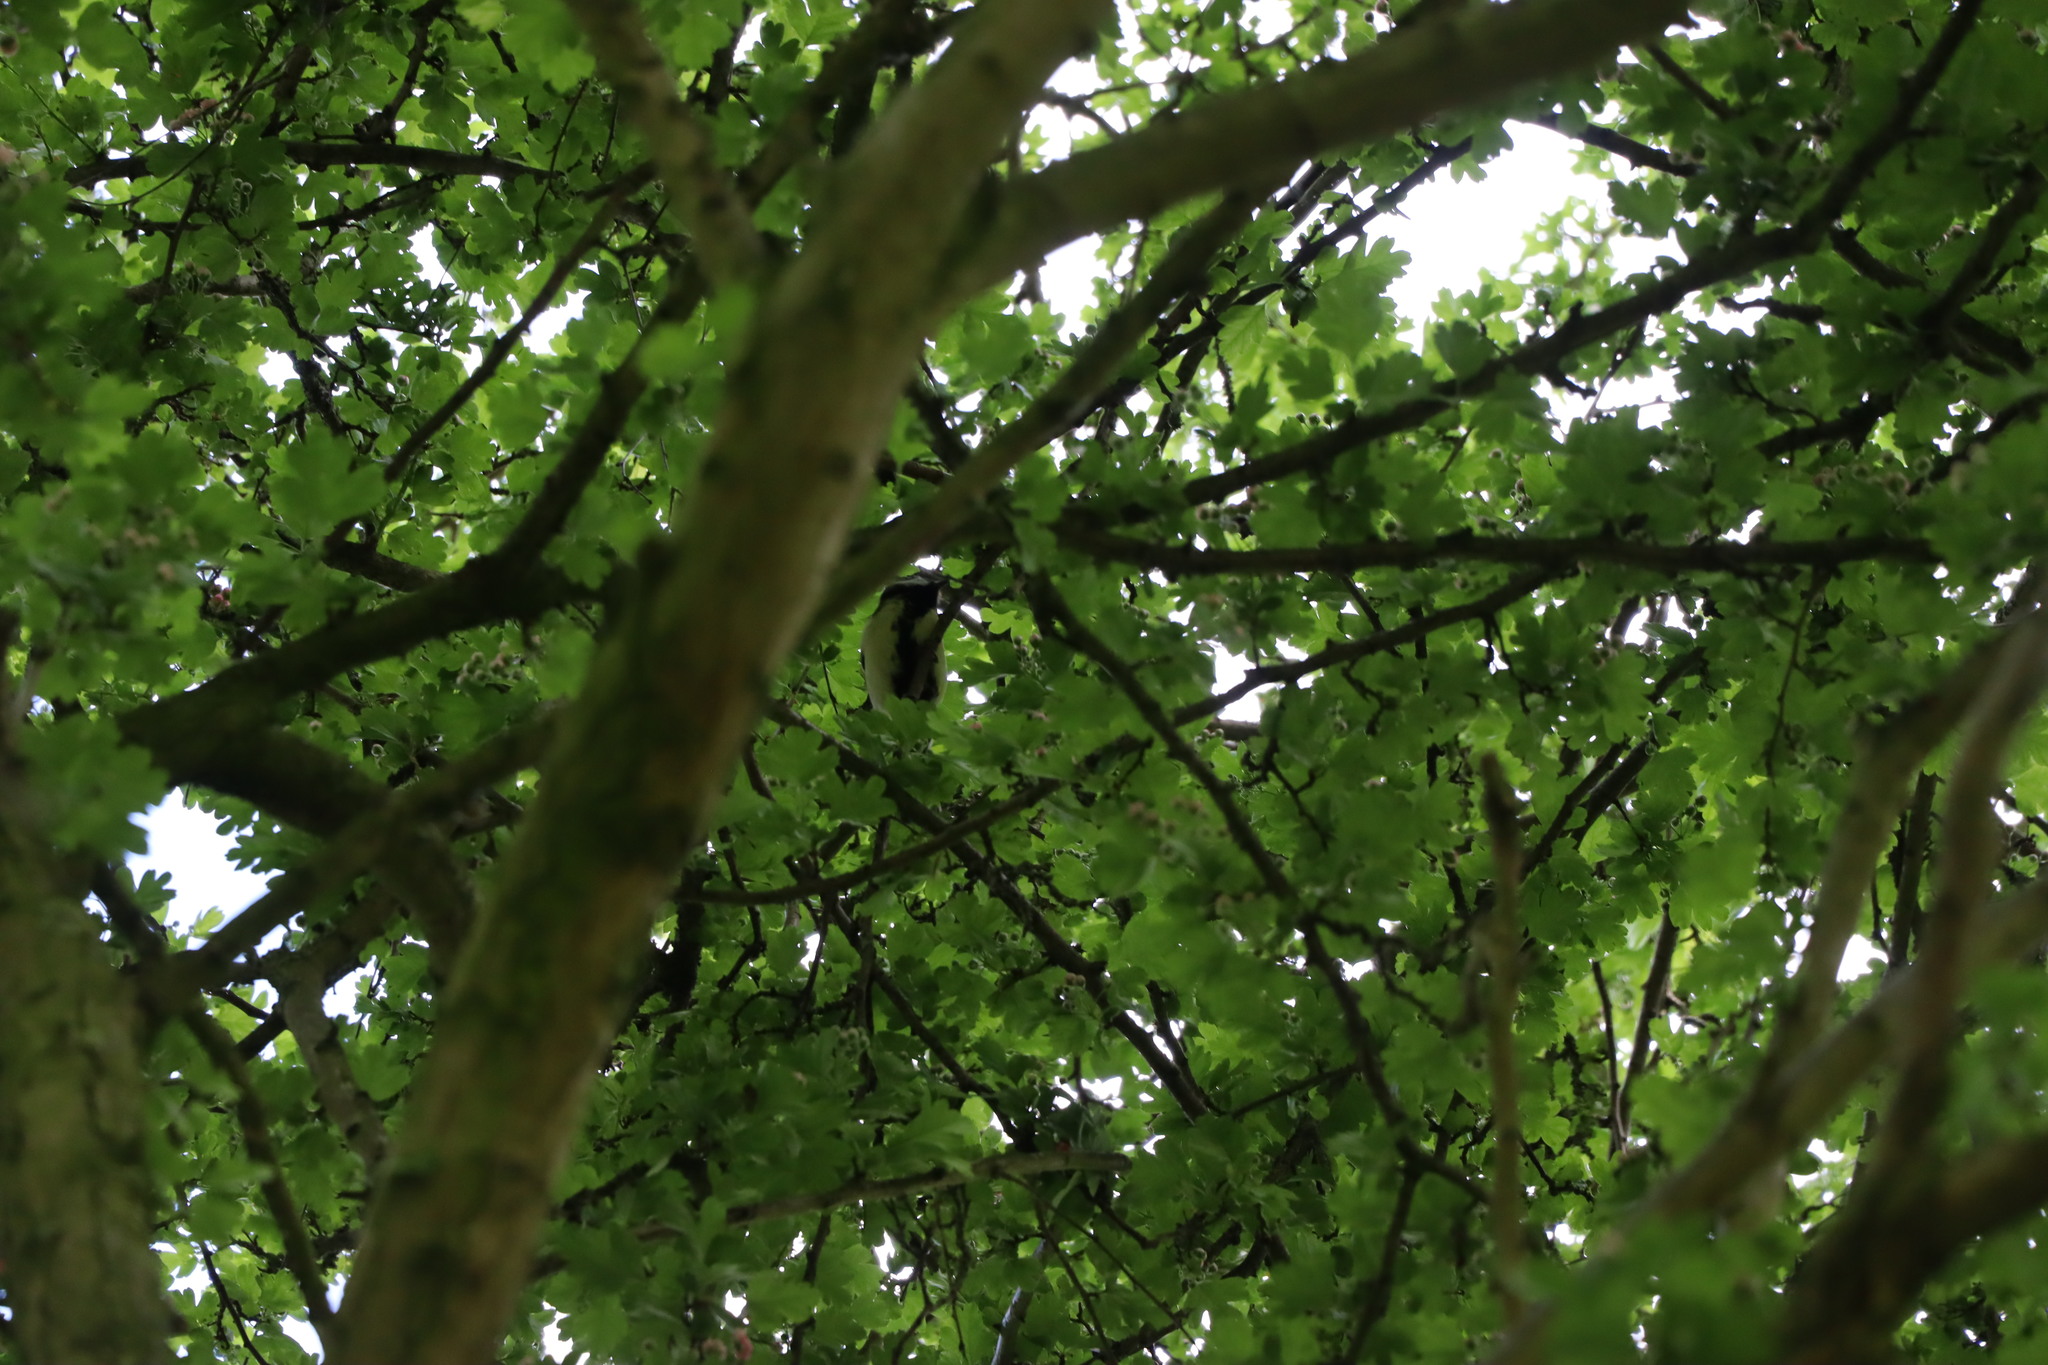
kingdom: Animalia
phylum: Chordata
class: Aves
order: Passeriformes
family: Paridae
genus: Parus
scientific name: Parus major
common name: Great tit
